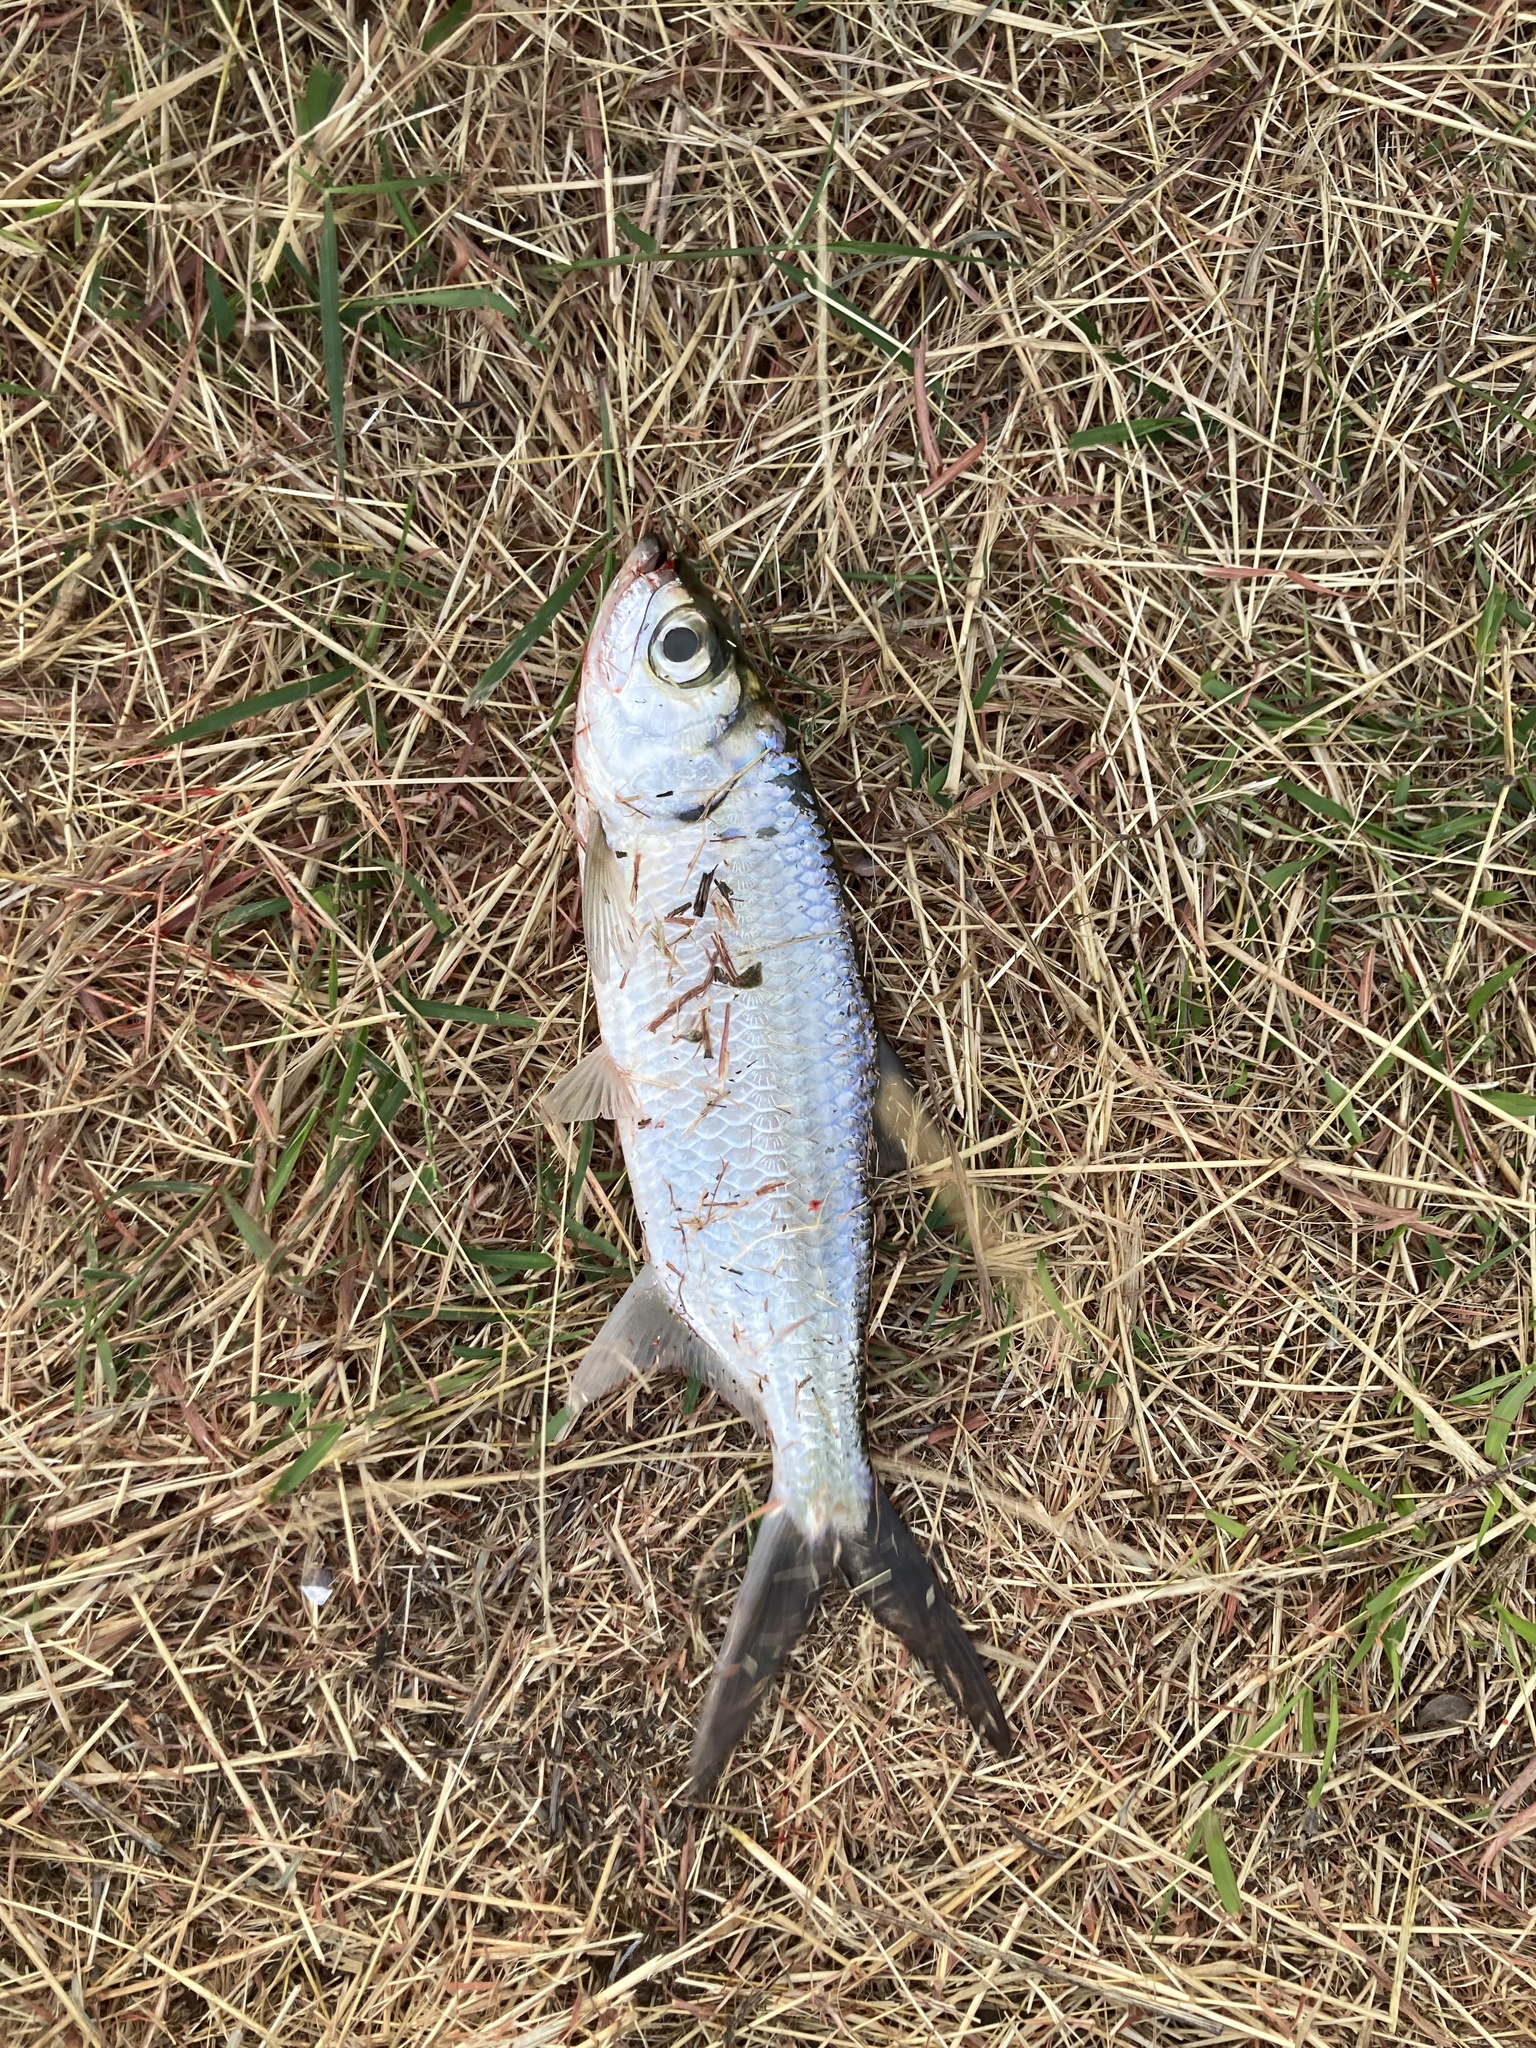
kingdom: Animalia
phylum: Chordata
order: Elopiformes
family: Megalopidae
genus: Megalops
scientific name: Megalops cyprinoides
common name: Indo-pacific tarpon
